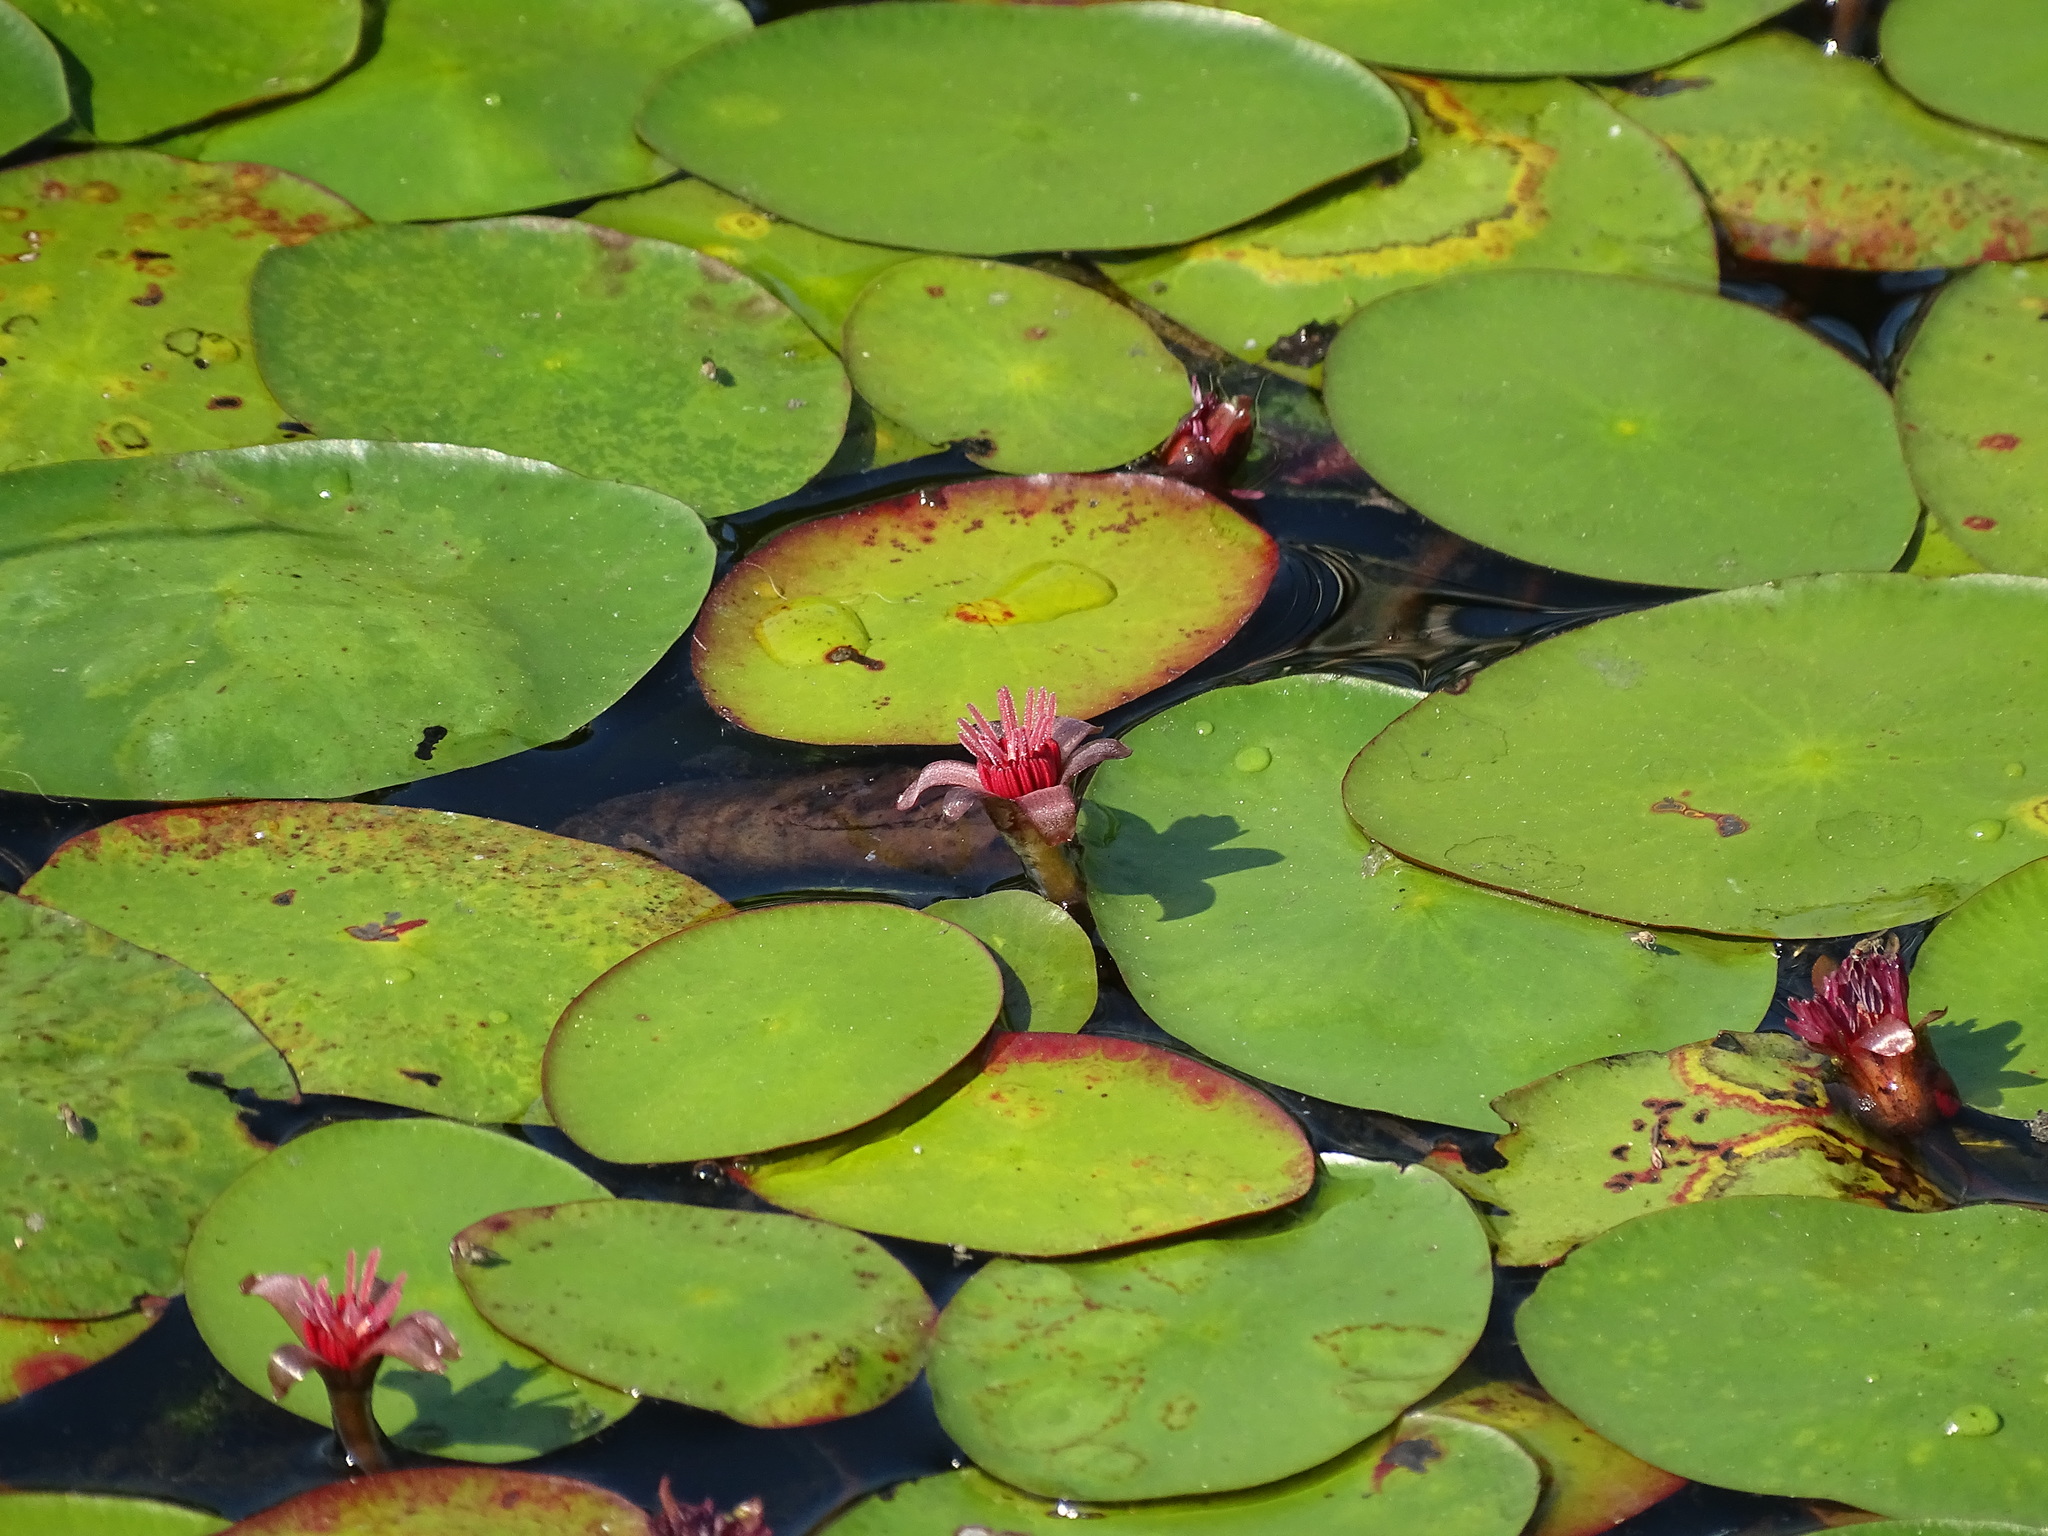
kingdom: Plantae
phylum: Tracheophyta
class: Magnoliopsida
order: Nymphaeales
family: Cabombaceae
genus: Brasenia
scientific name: Brasenia schreberi
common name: Water-shield
